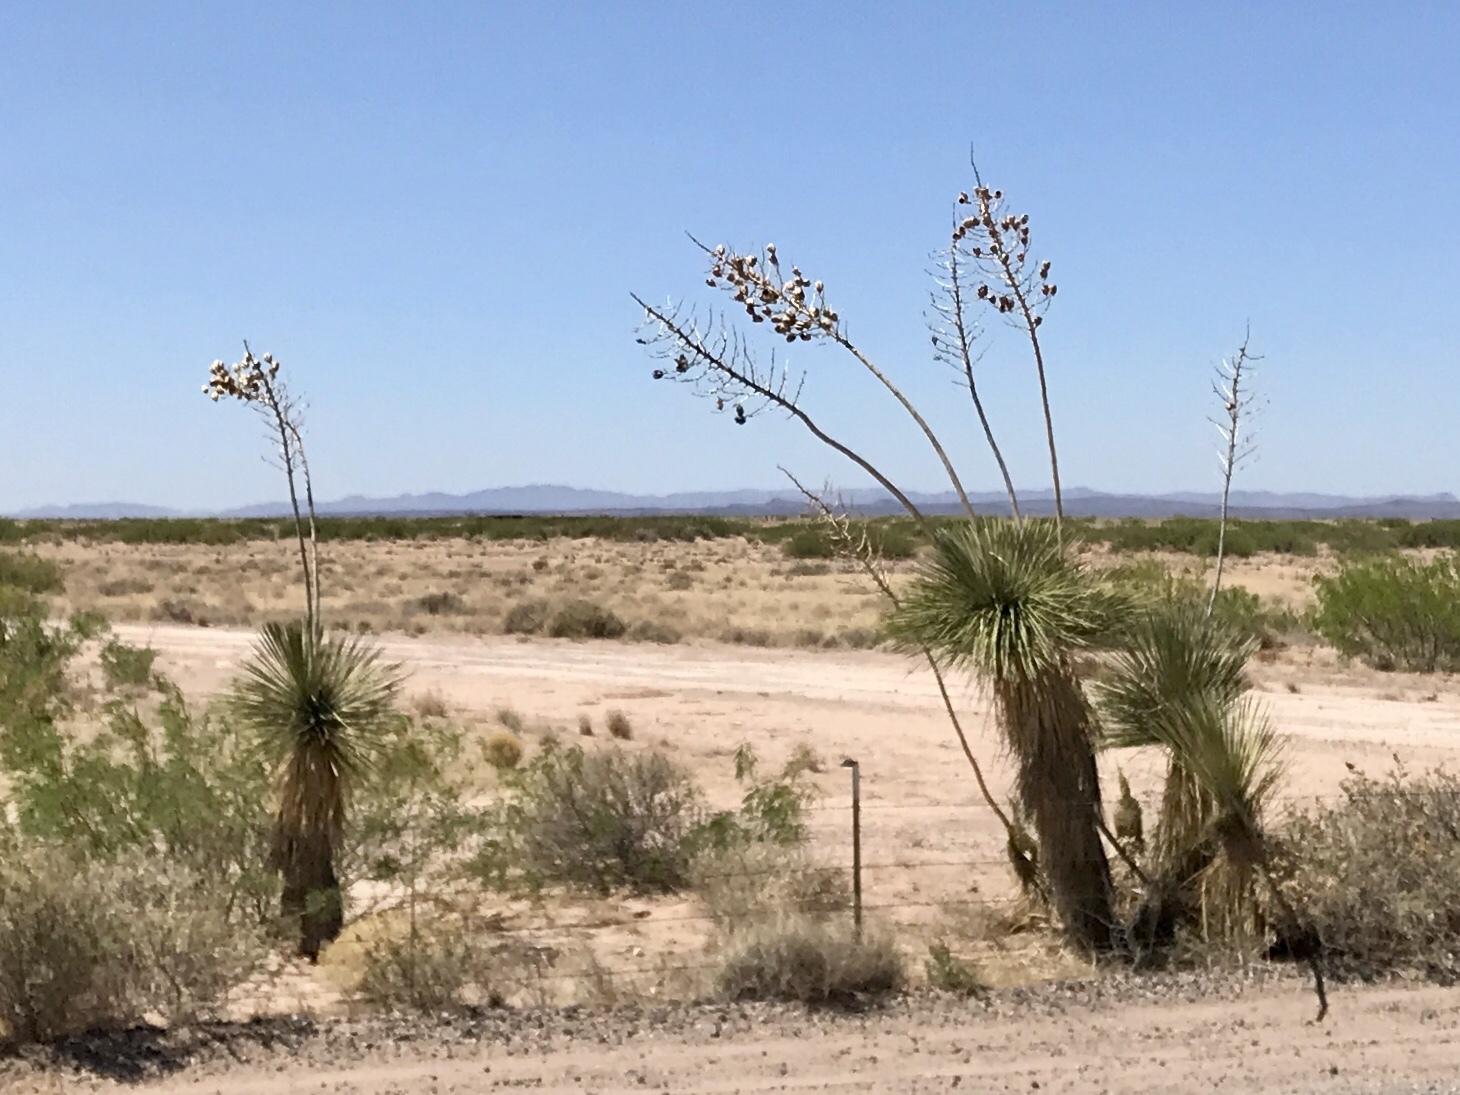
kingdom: Plantae
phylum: Tracheophyta
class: Liliopsida
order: Asparagales
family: Asparagaceae
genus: Yucca
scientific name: Yucca elata
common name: Palmella
